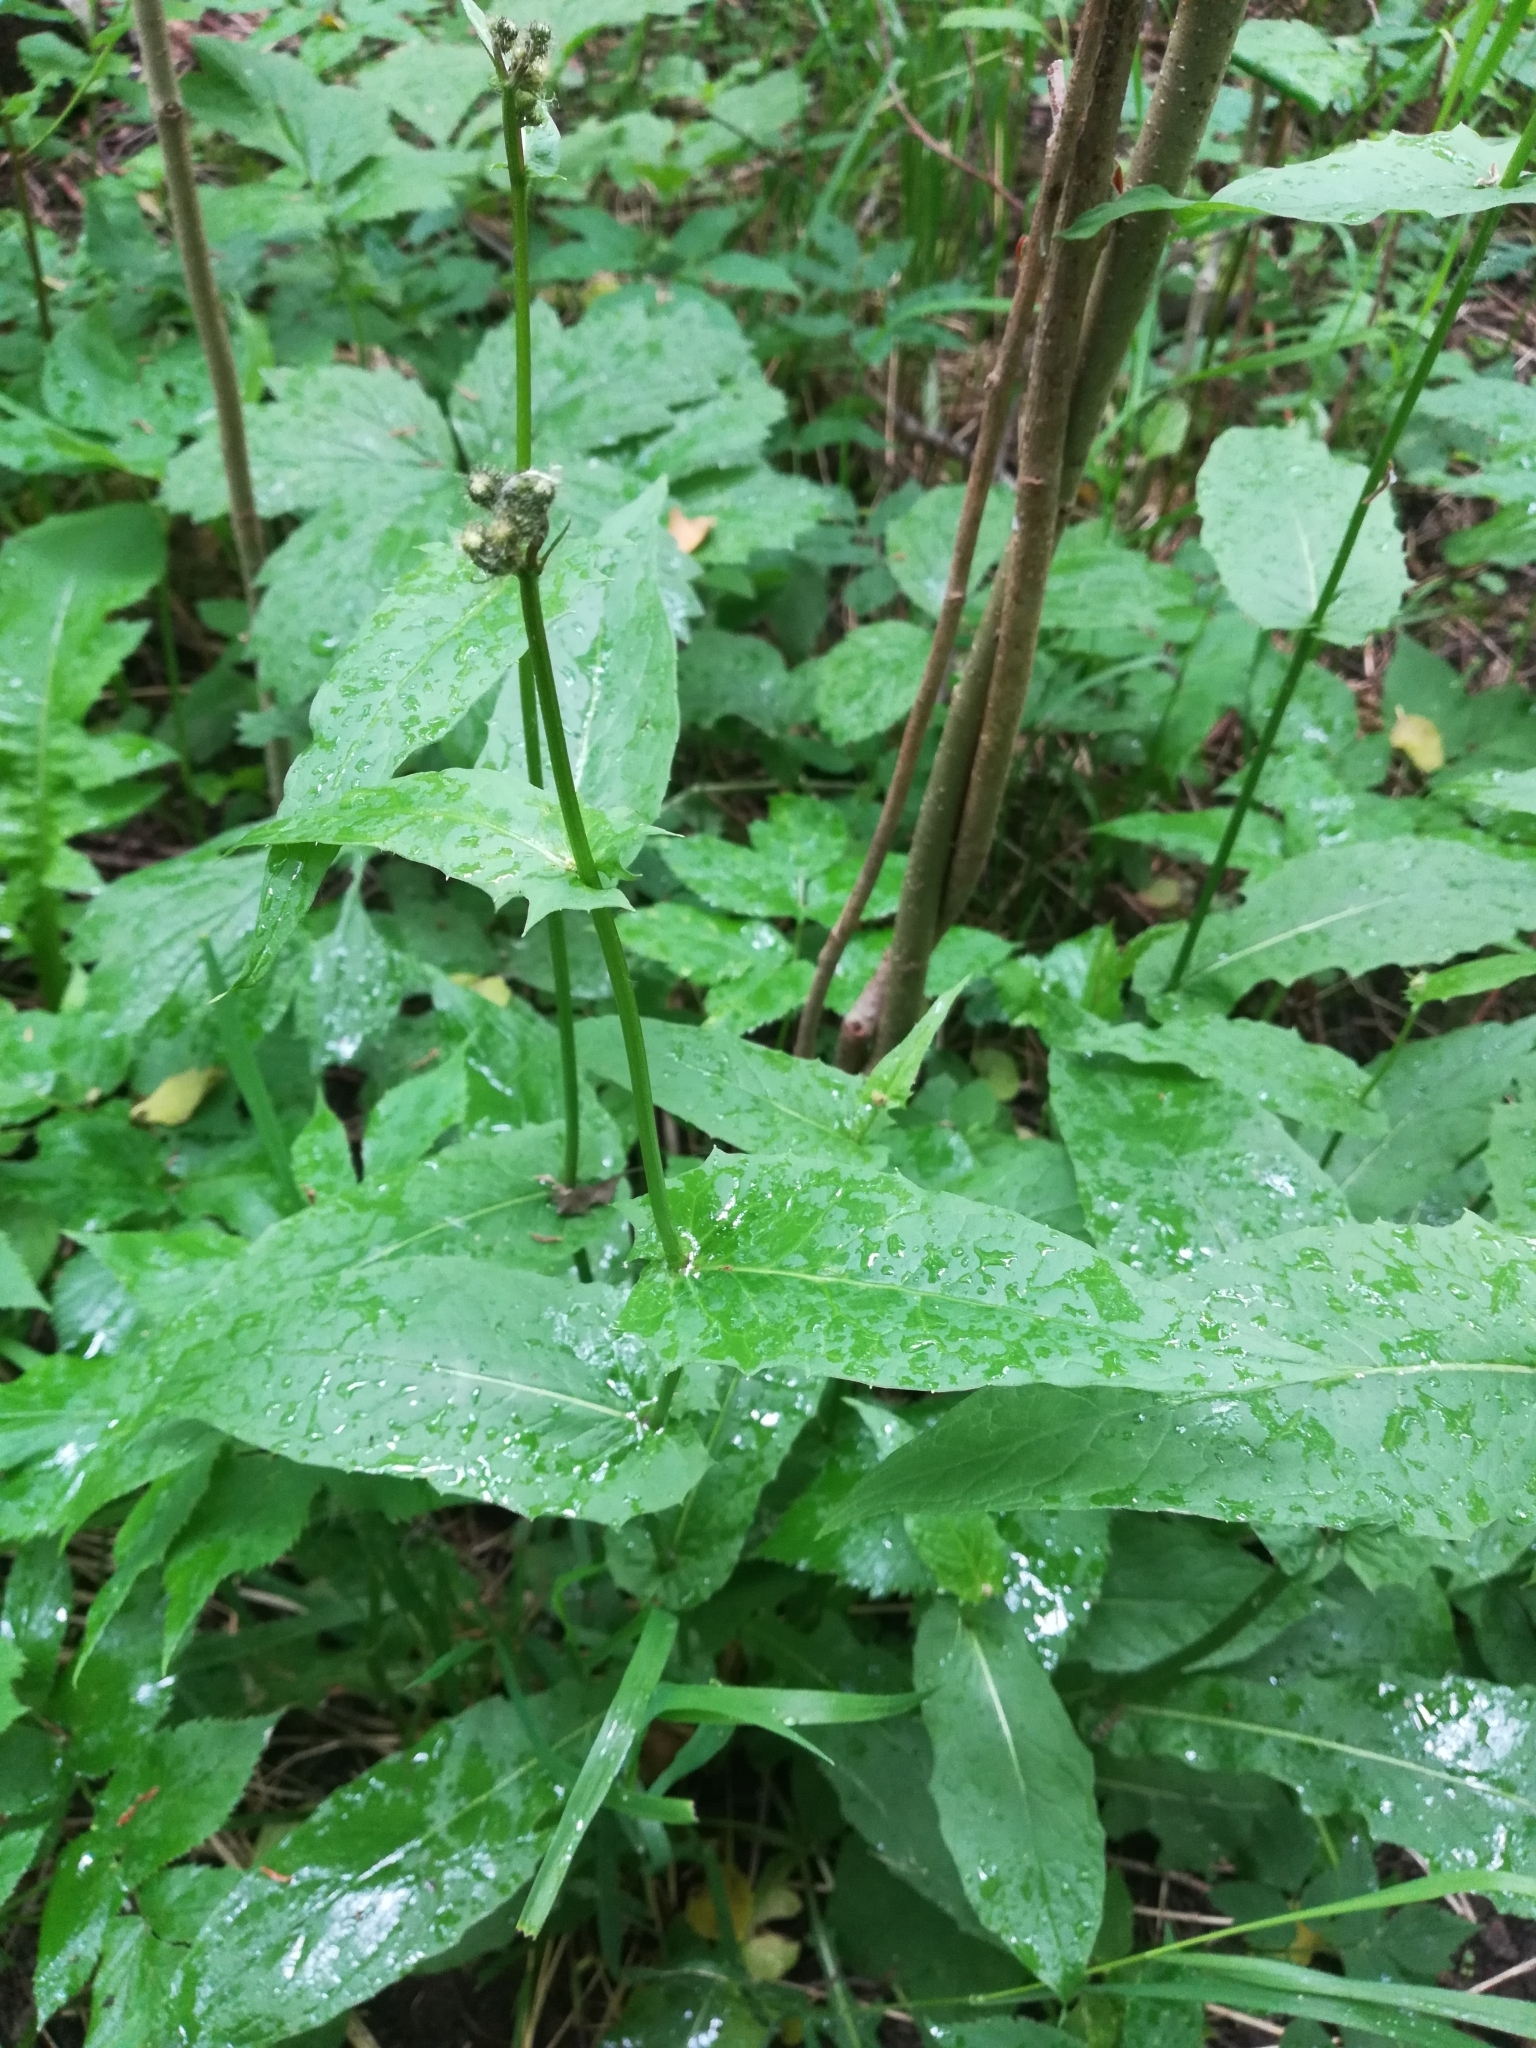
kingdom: Plantae
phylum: Tracheophyta
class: Magnoliopsida
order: Asterales
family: Asteraceae
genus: Crepis
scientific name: Crepis paludosa
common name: Marsh hawk's-beard
